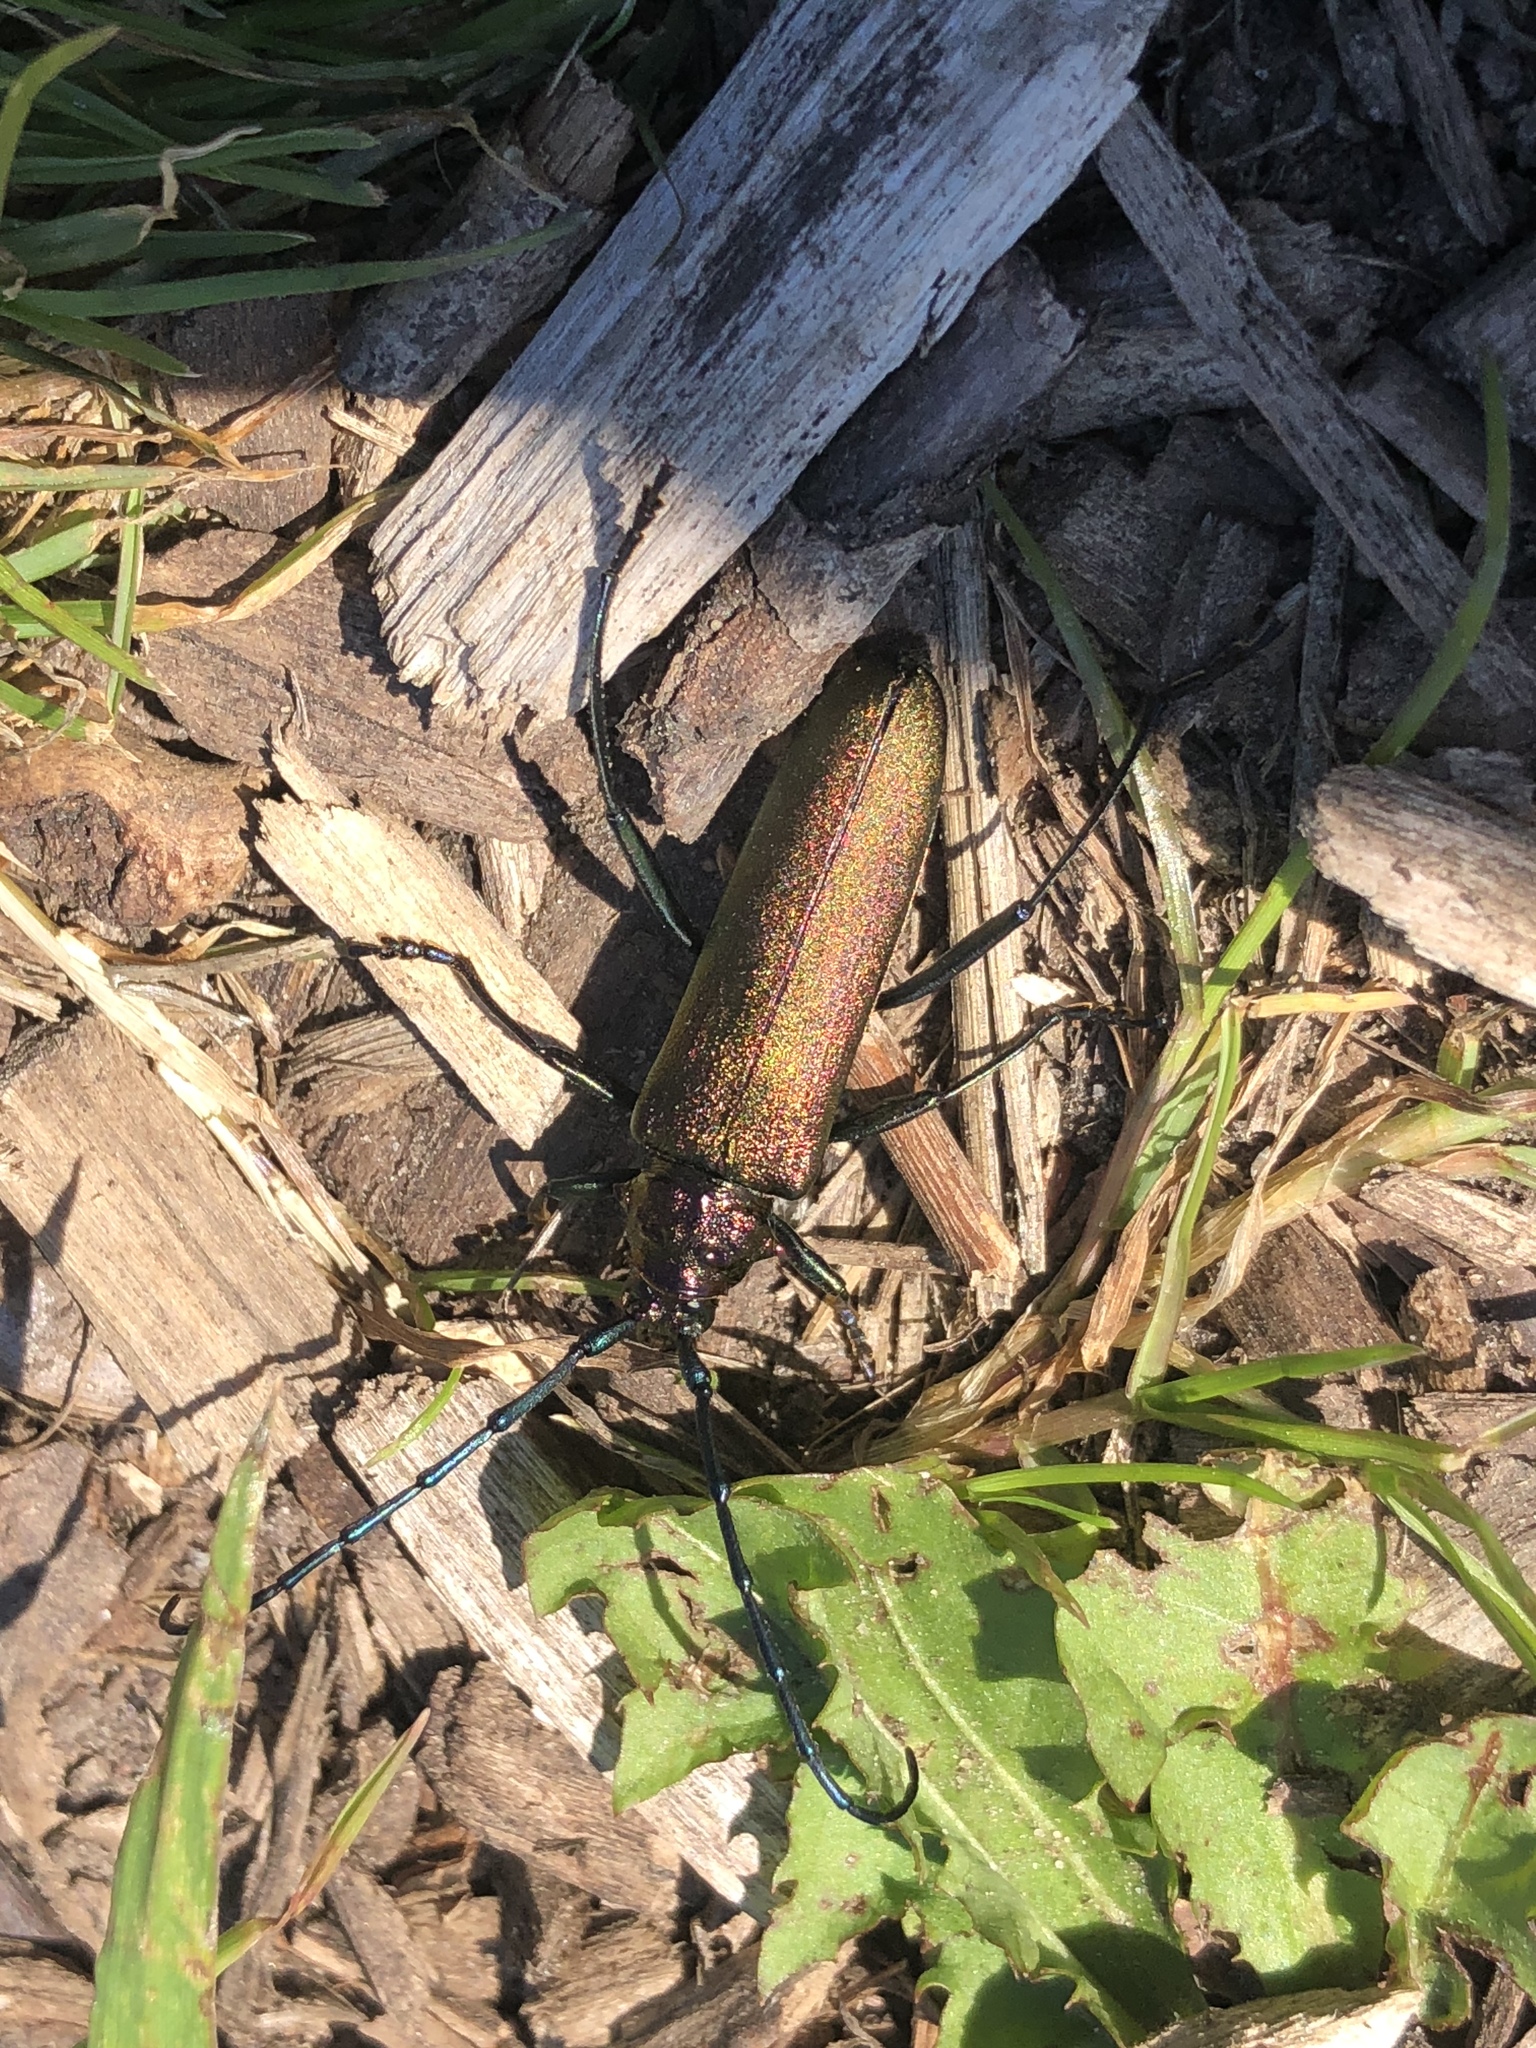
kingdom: Animalia
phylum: Arthropoda
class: Insecta
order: Coleoptera
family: Cerambycidae
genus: Aromia
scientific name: Aromia moschata
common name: Musk beetle
